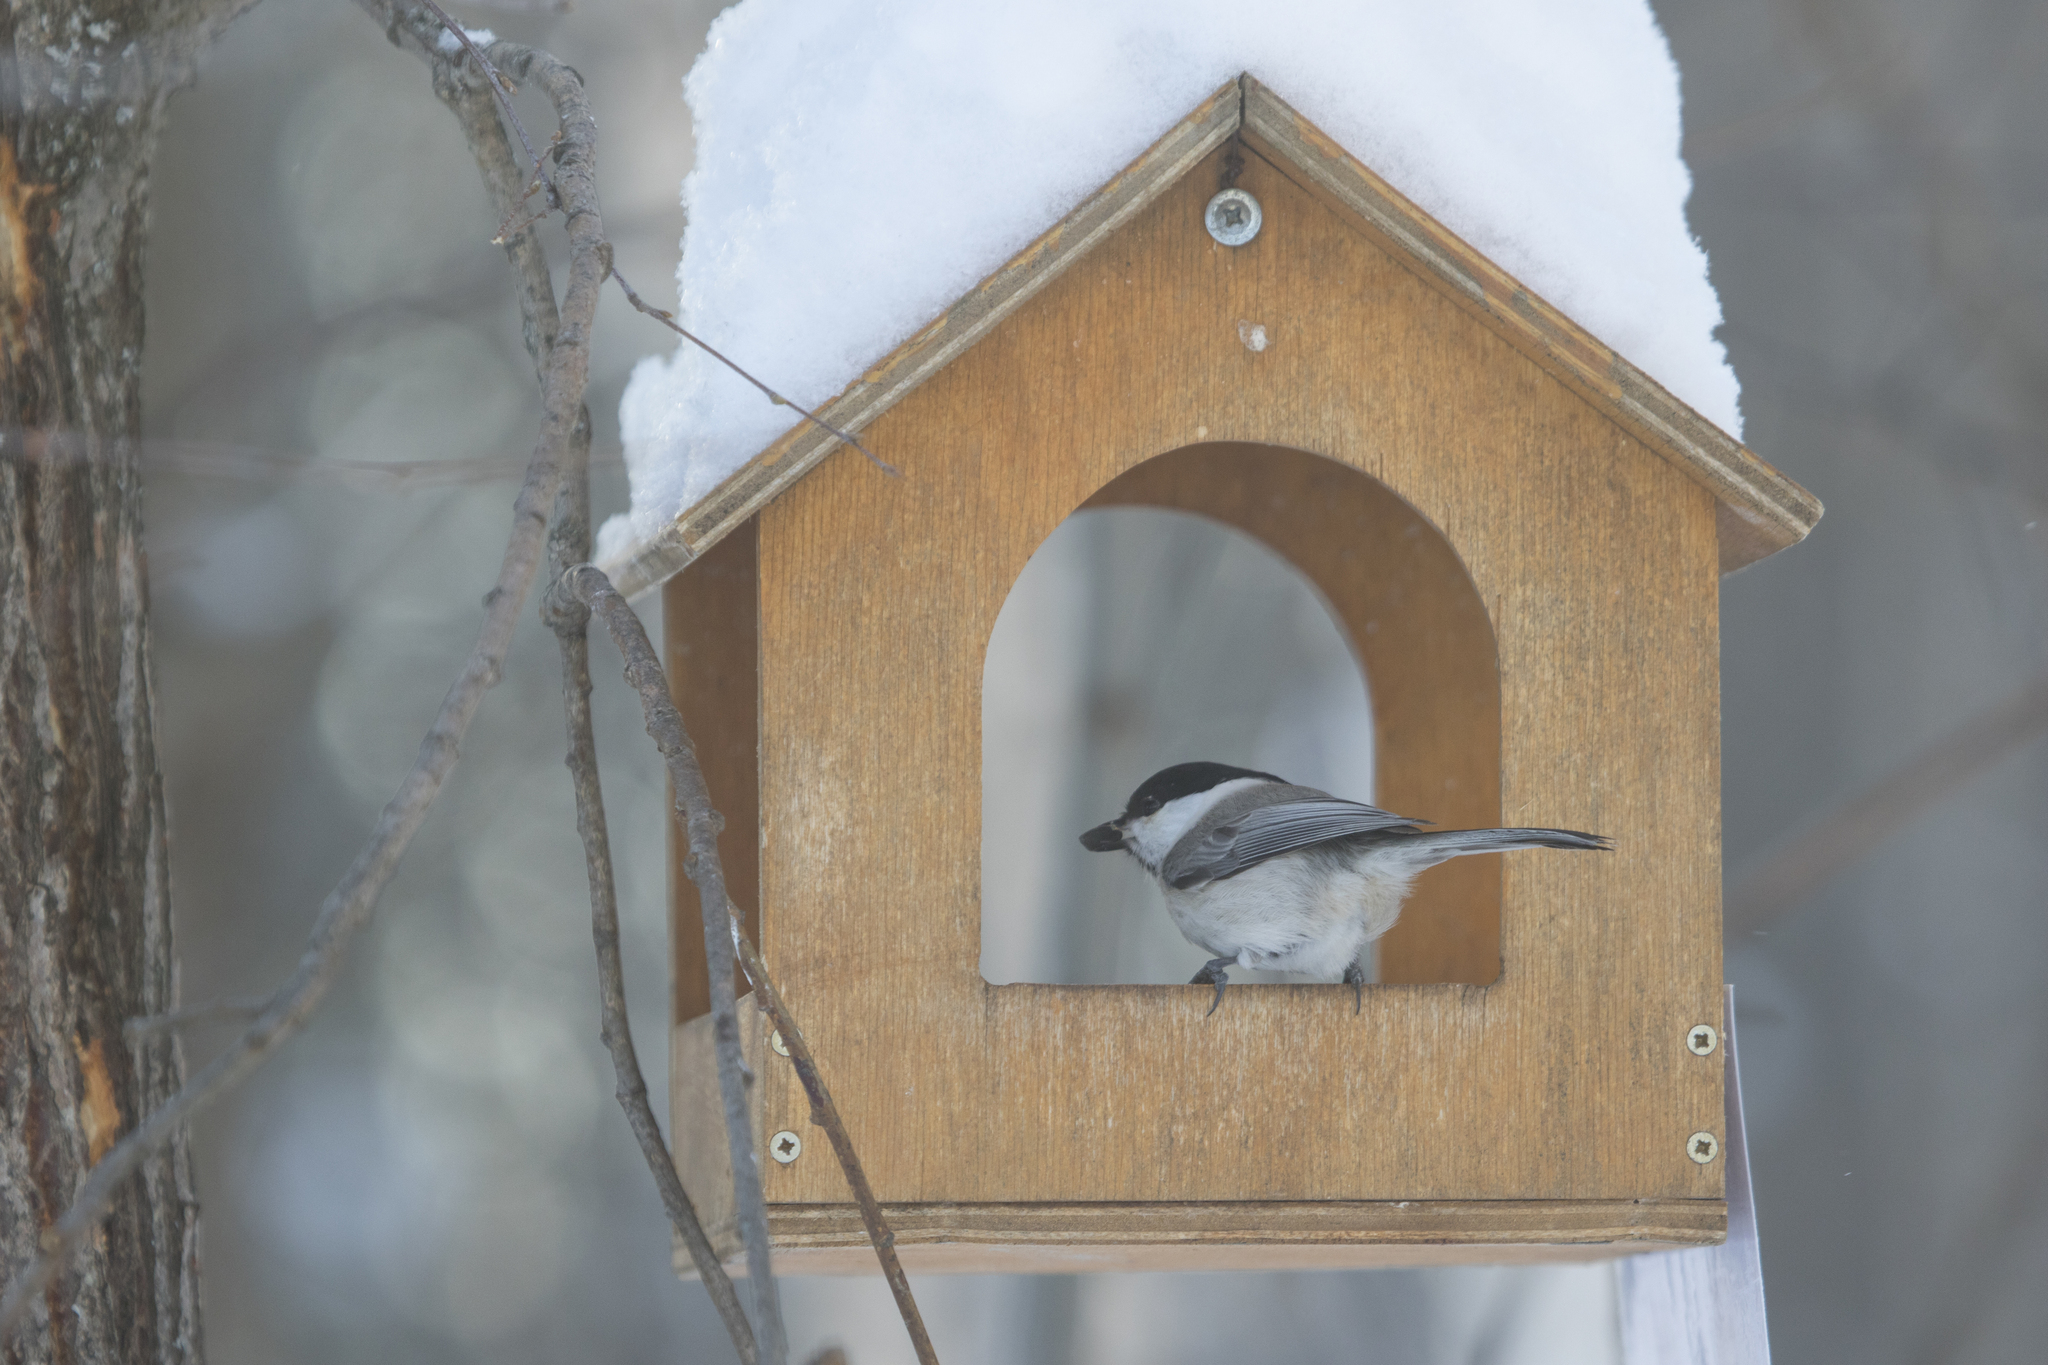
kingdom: Animalia
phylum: Chordata
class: Aves
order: Passeriformes
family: Paridae
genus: Poecile
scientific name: Poecile montanus
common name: Willow tit
